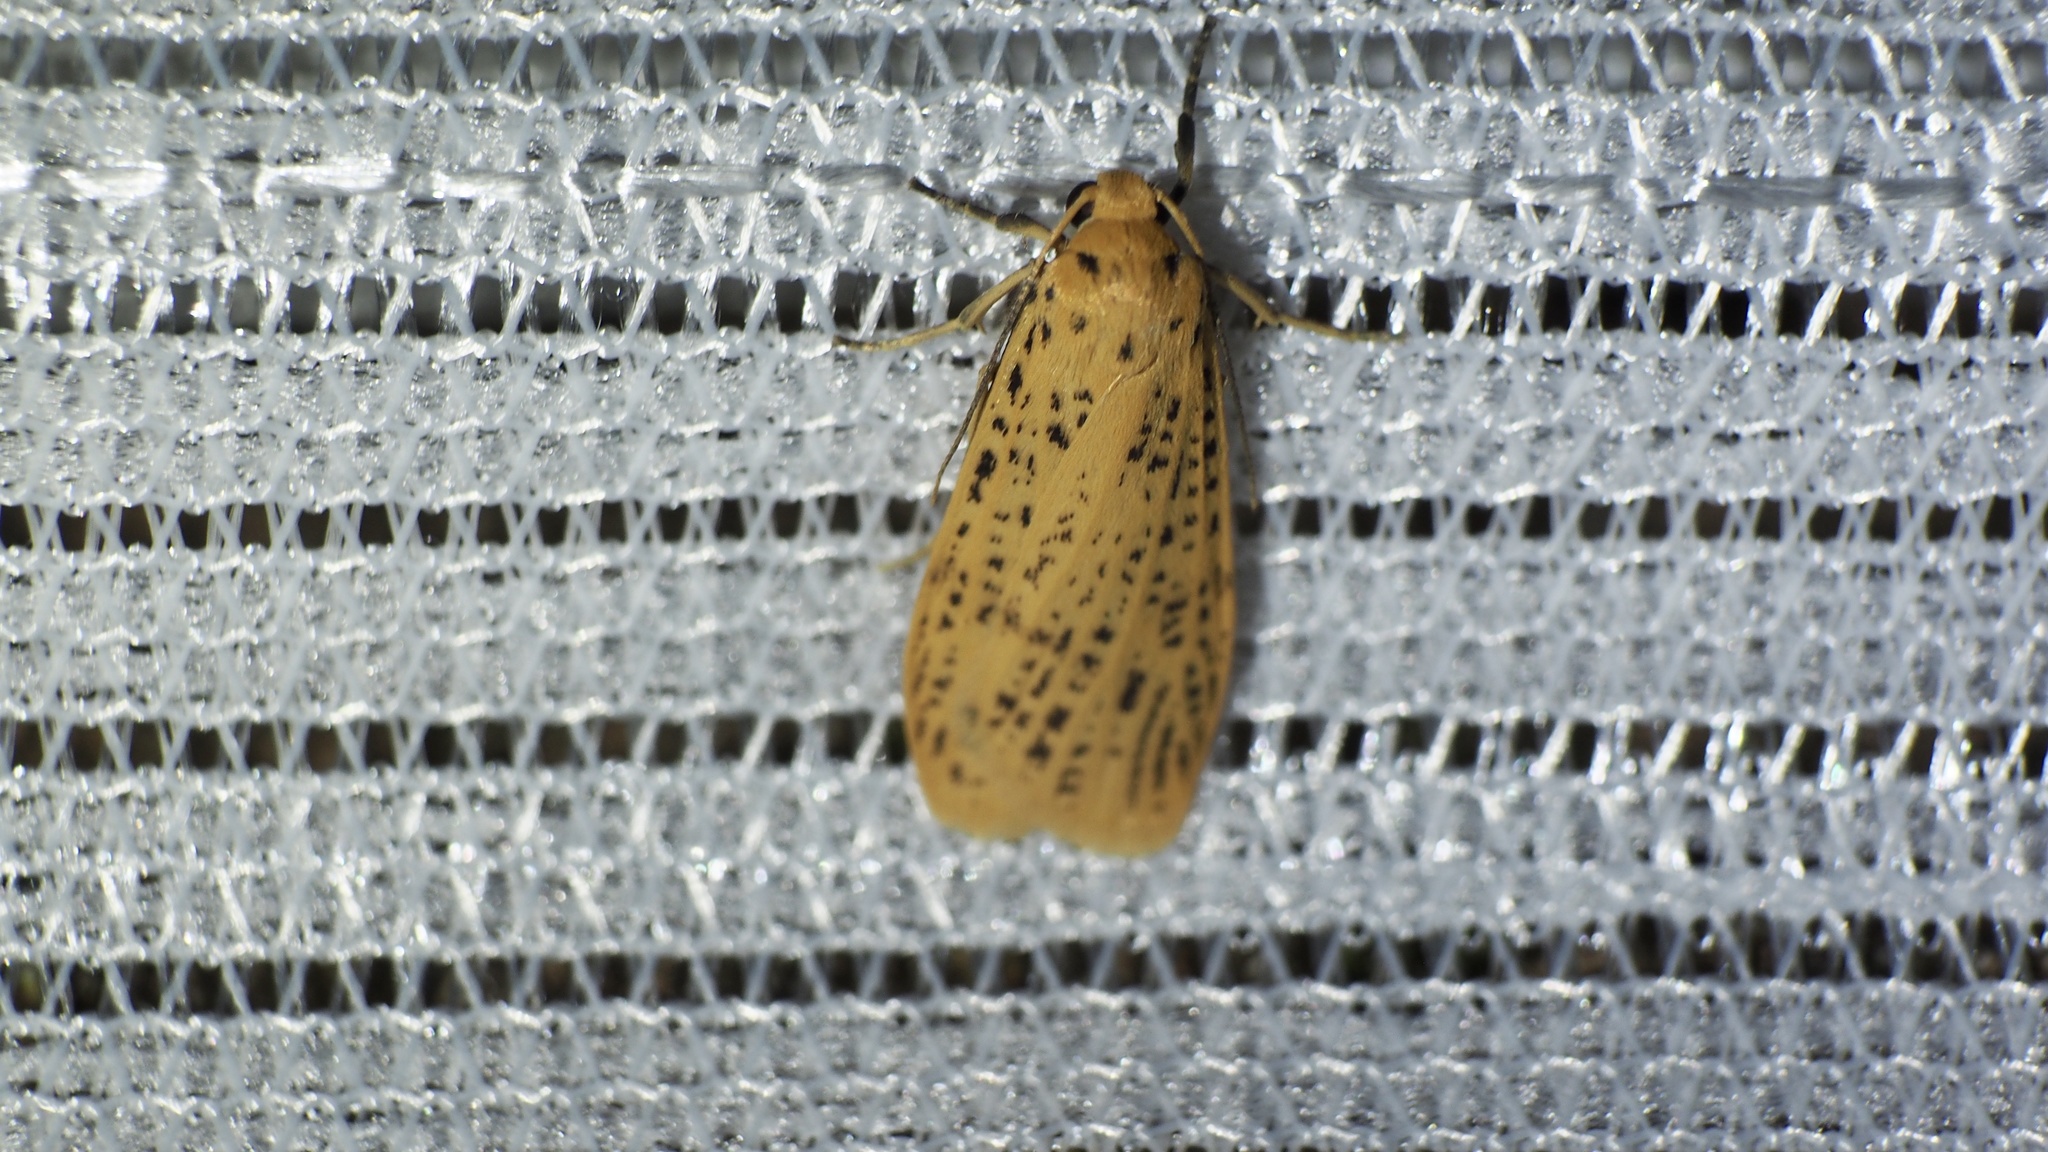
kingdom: Animalia
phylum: Arthropoda
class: Insecta
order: Lepidoptera
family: Erebidae
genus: Dolgoma
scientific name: Dolgoma cribrata
